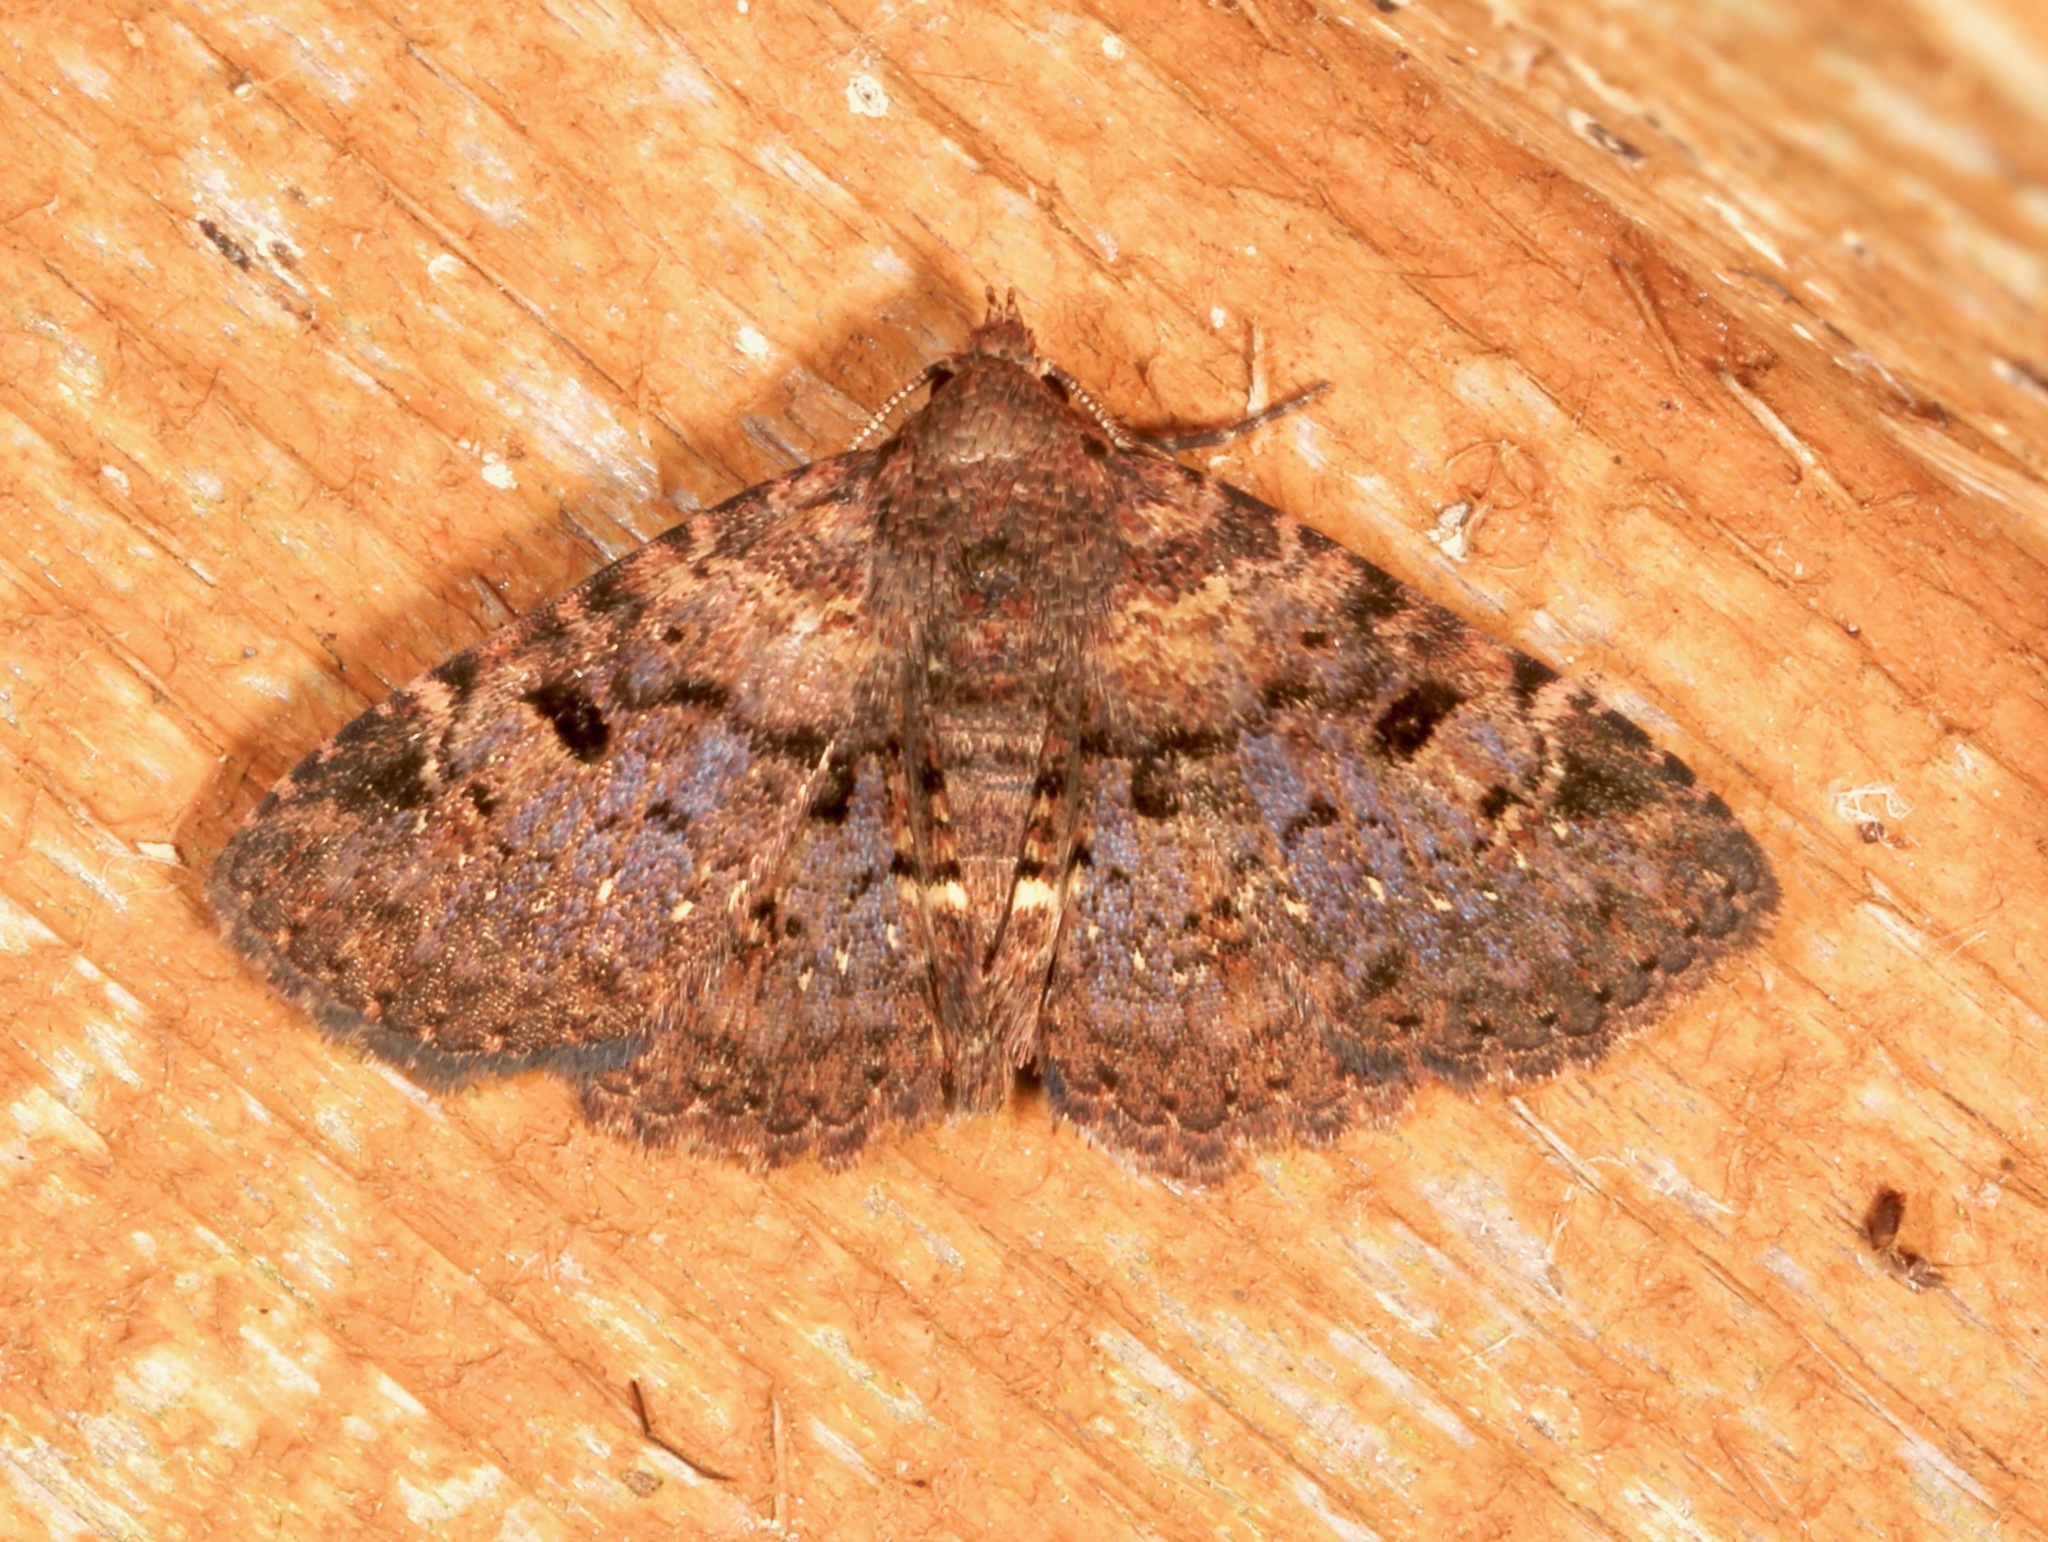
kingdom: Animalia
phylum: Arthropoda
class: Insecta
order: Lepidoptera
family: Erebidae
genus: Metalectra
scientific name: Metalectra quadrisignata
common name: Four-spotted fungus moth
